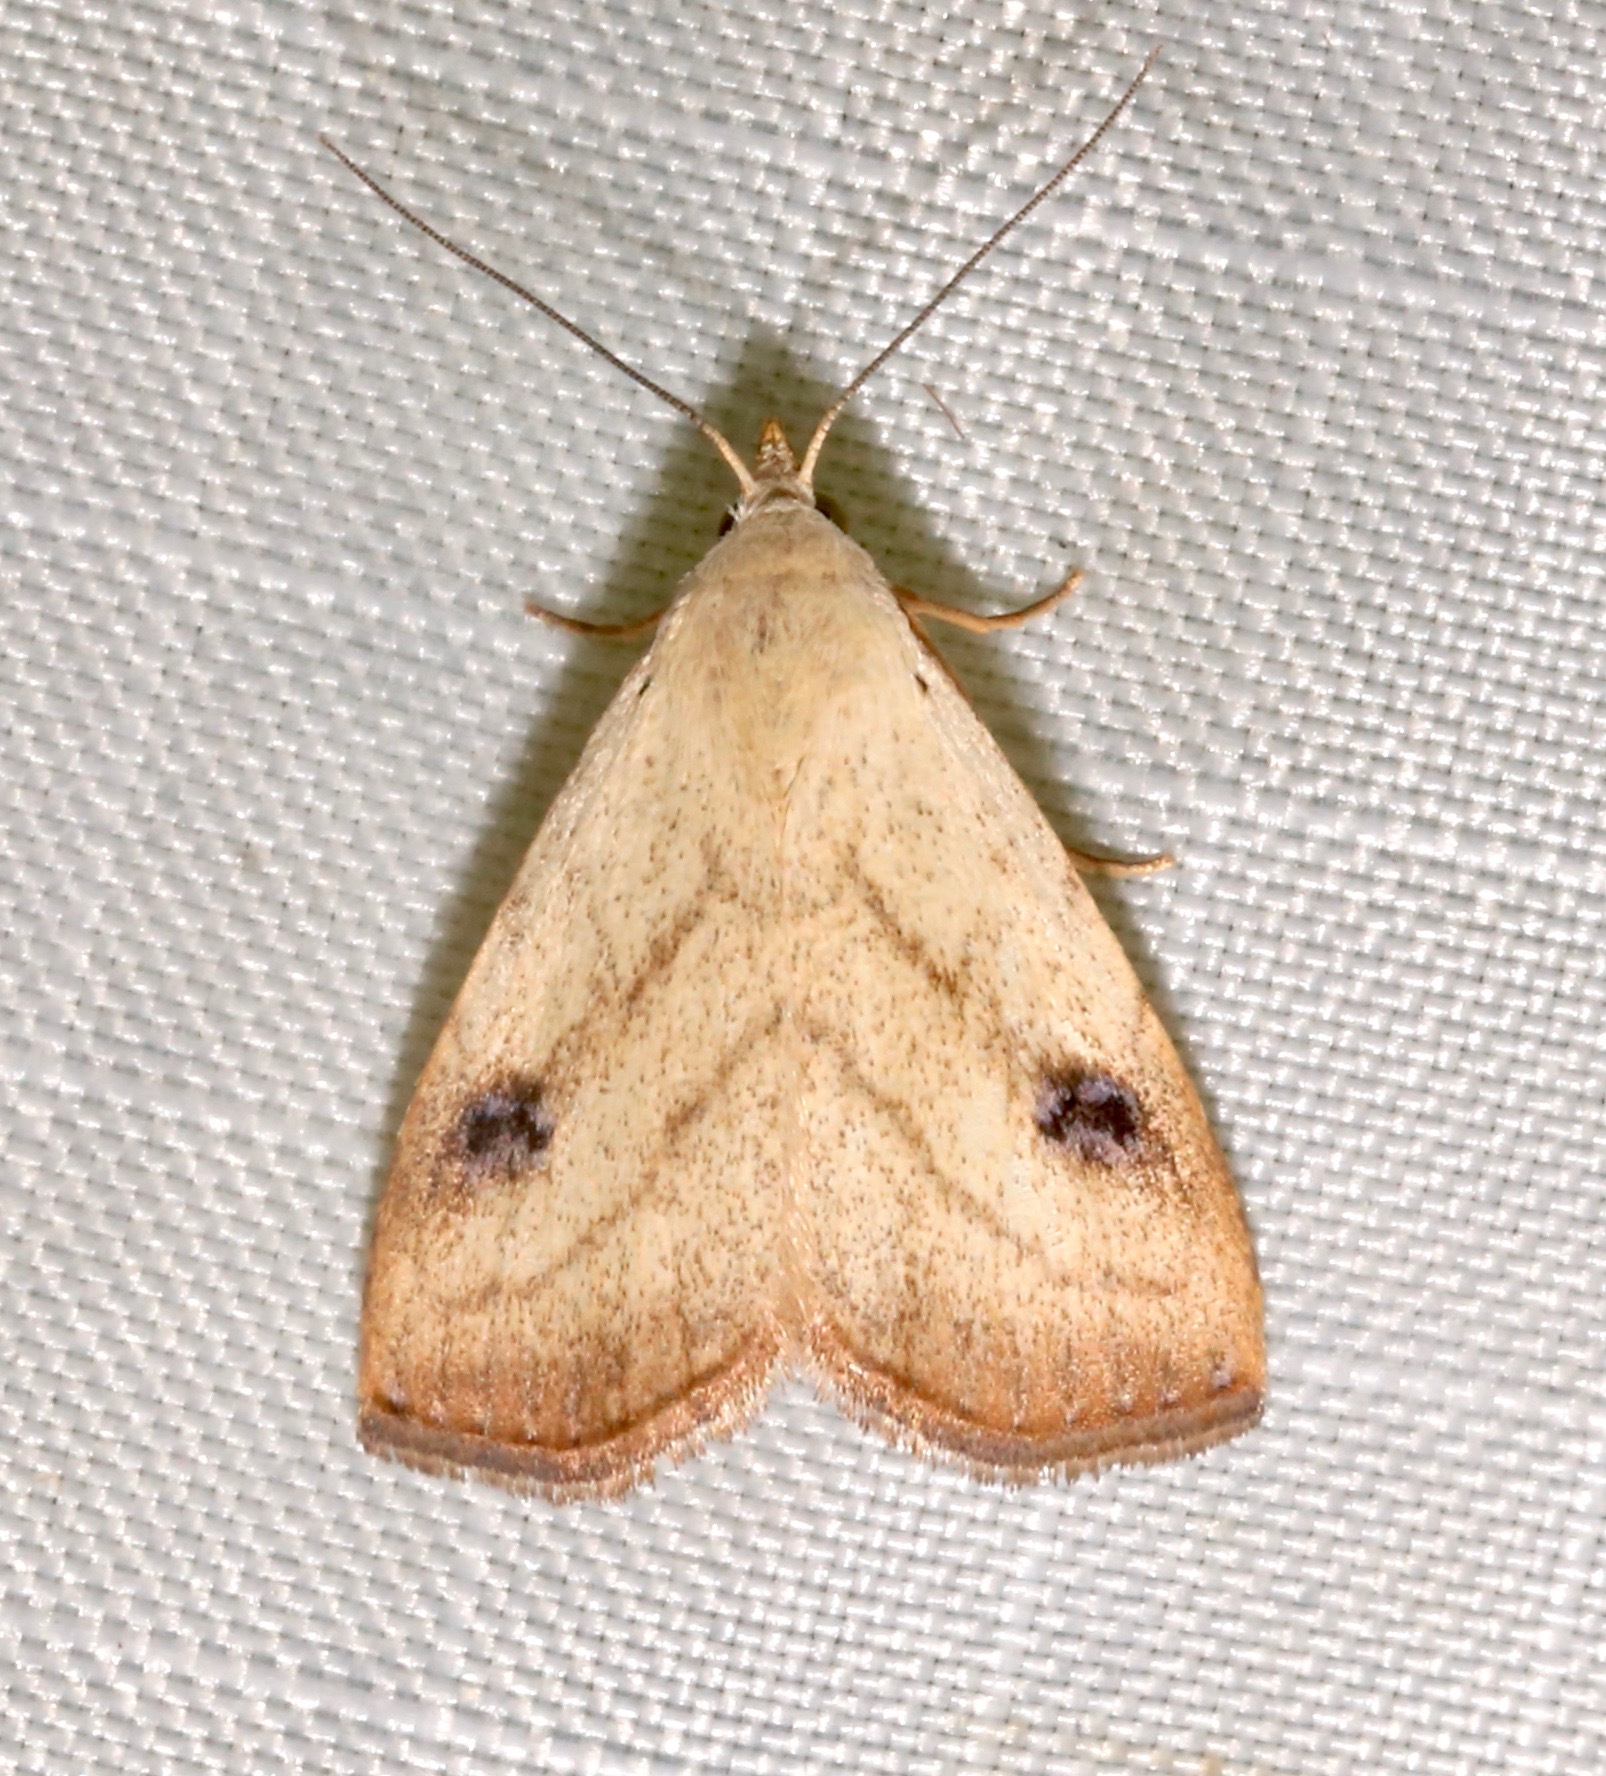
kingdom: Animalia
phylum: Arthropoda
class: Insecta
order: Lepidoptera
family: Erebidae
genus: Rivula
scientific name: Rivula propinqualis
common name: Spotted grass moth
